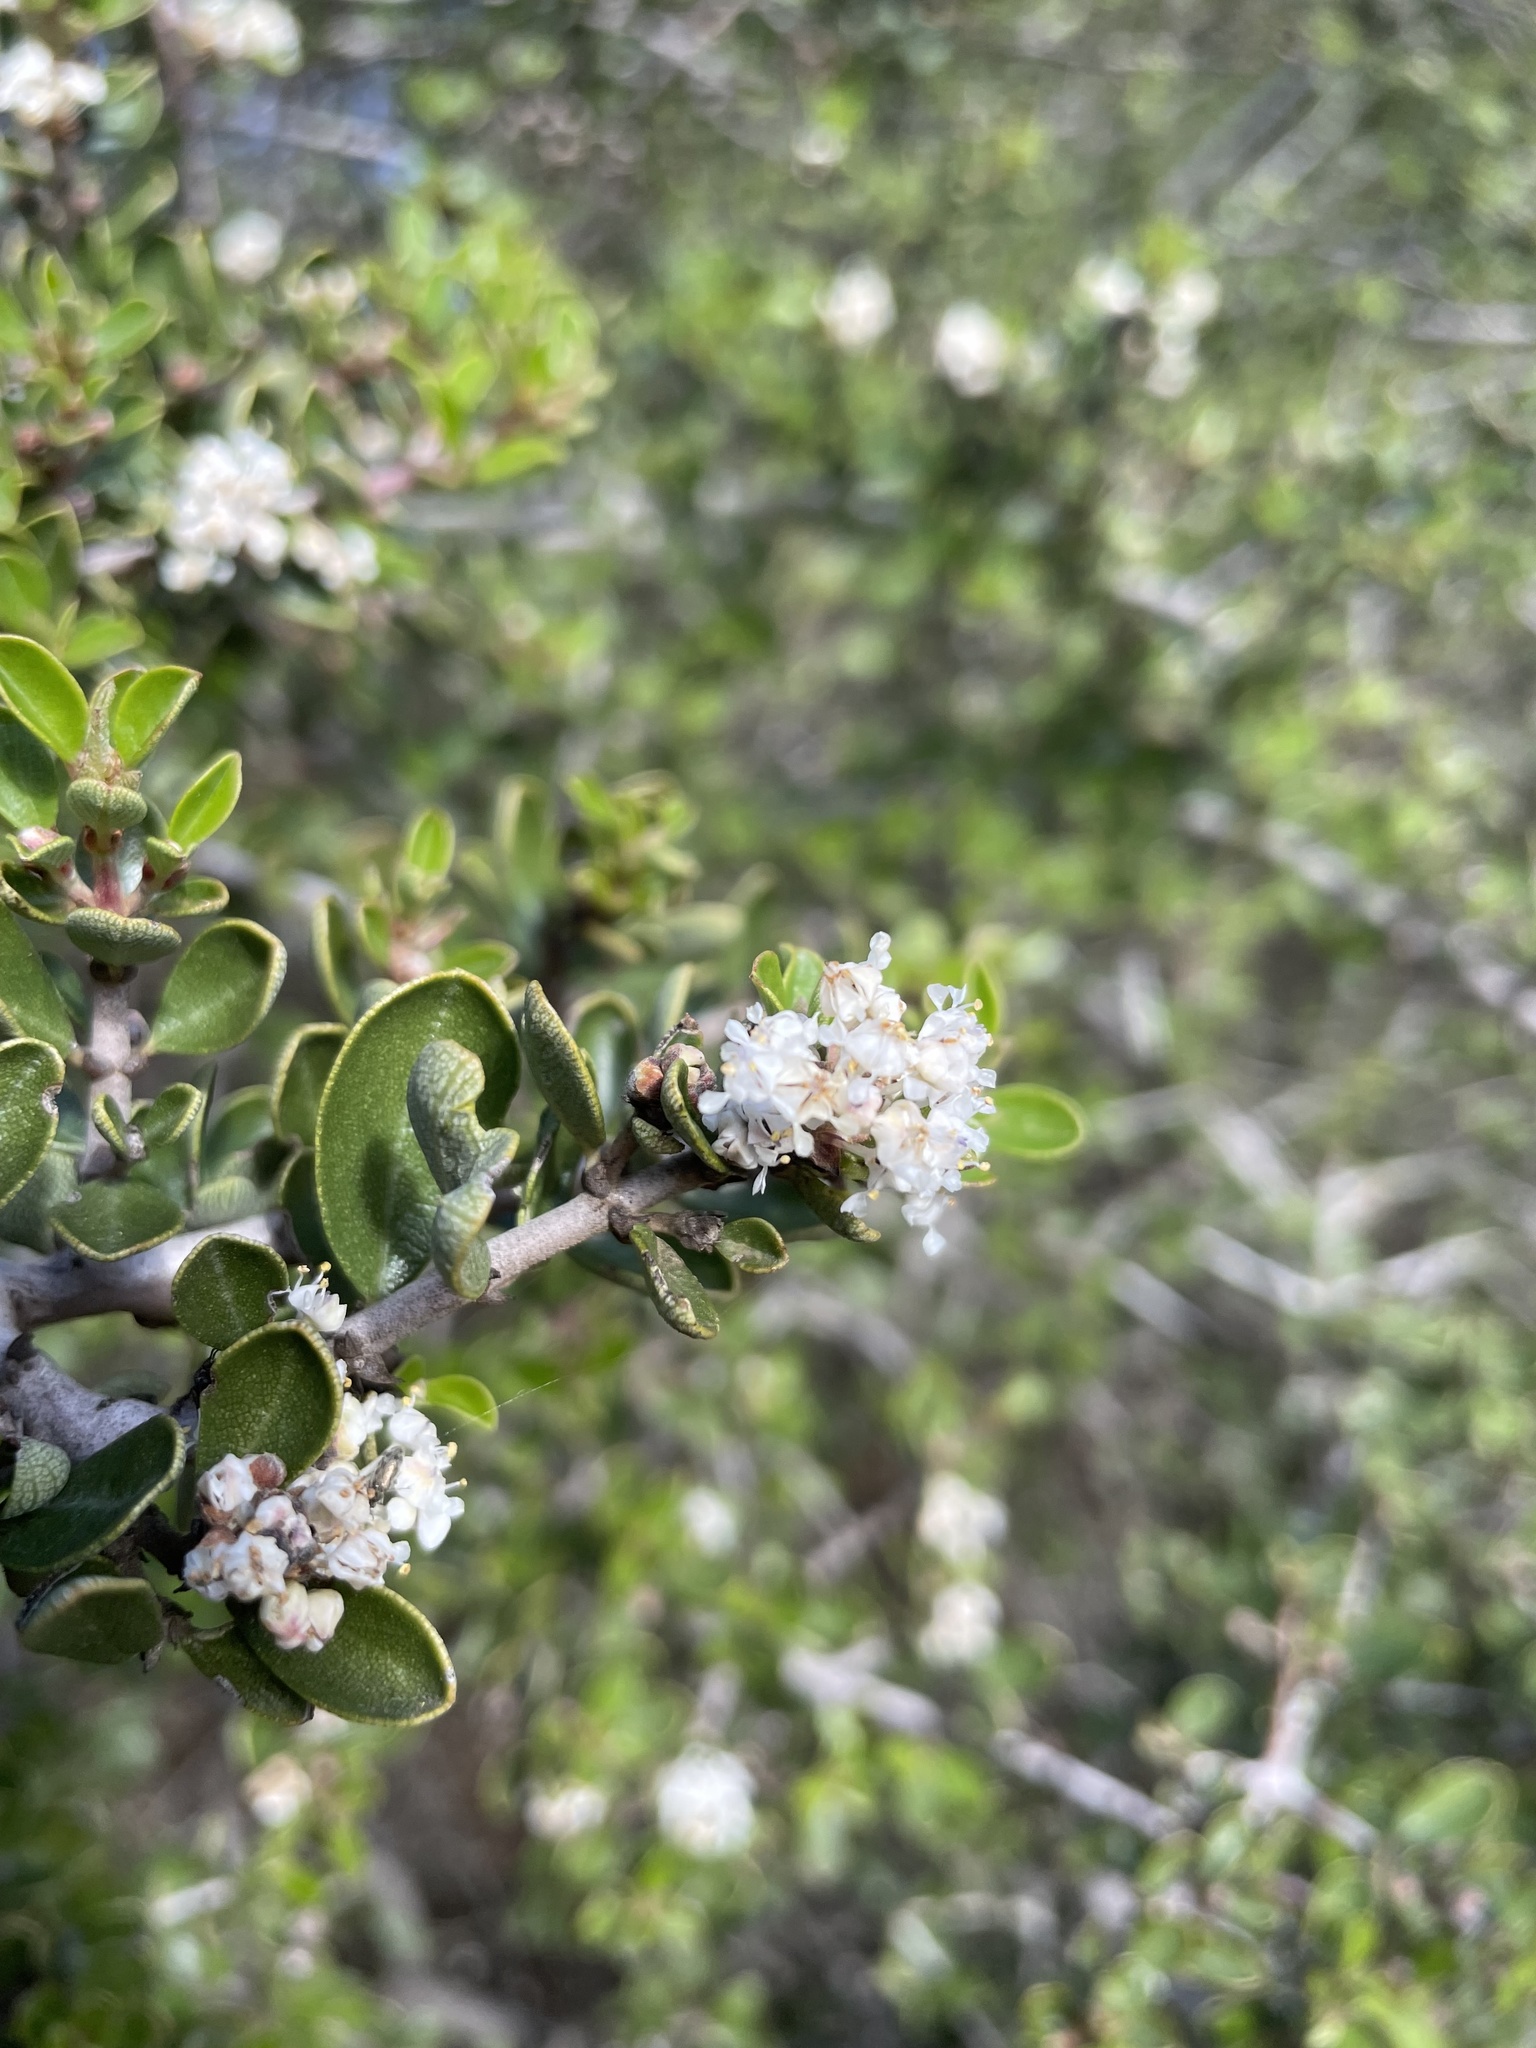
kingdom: Plantae
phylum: Tracheophyta
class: Magnoliopsida
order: Rosales
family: Rhamnaceae
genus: Ceanothus
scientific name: Ceanothus cuneatus
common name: Cuneate ceanothus
